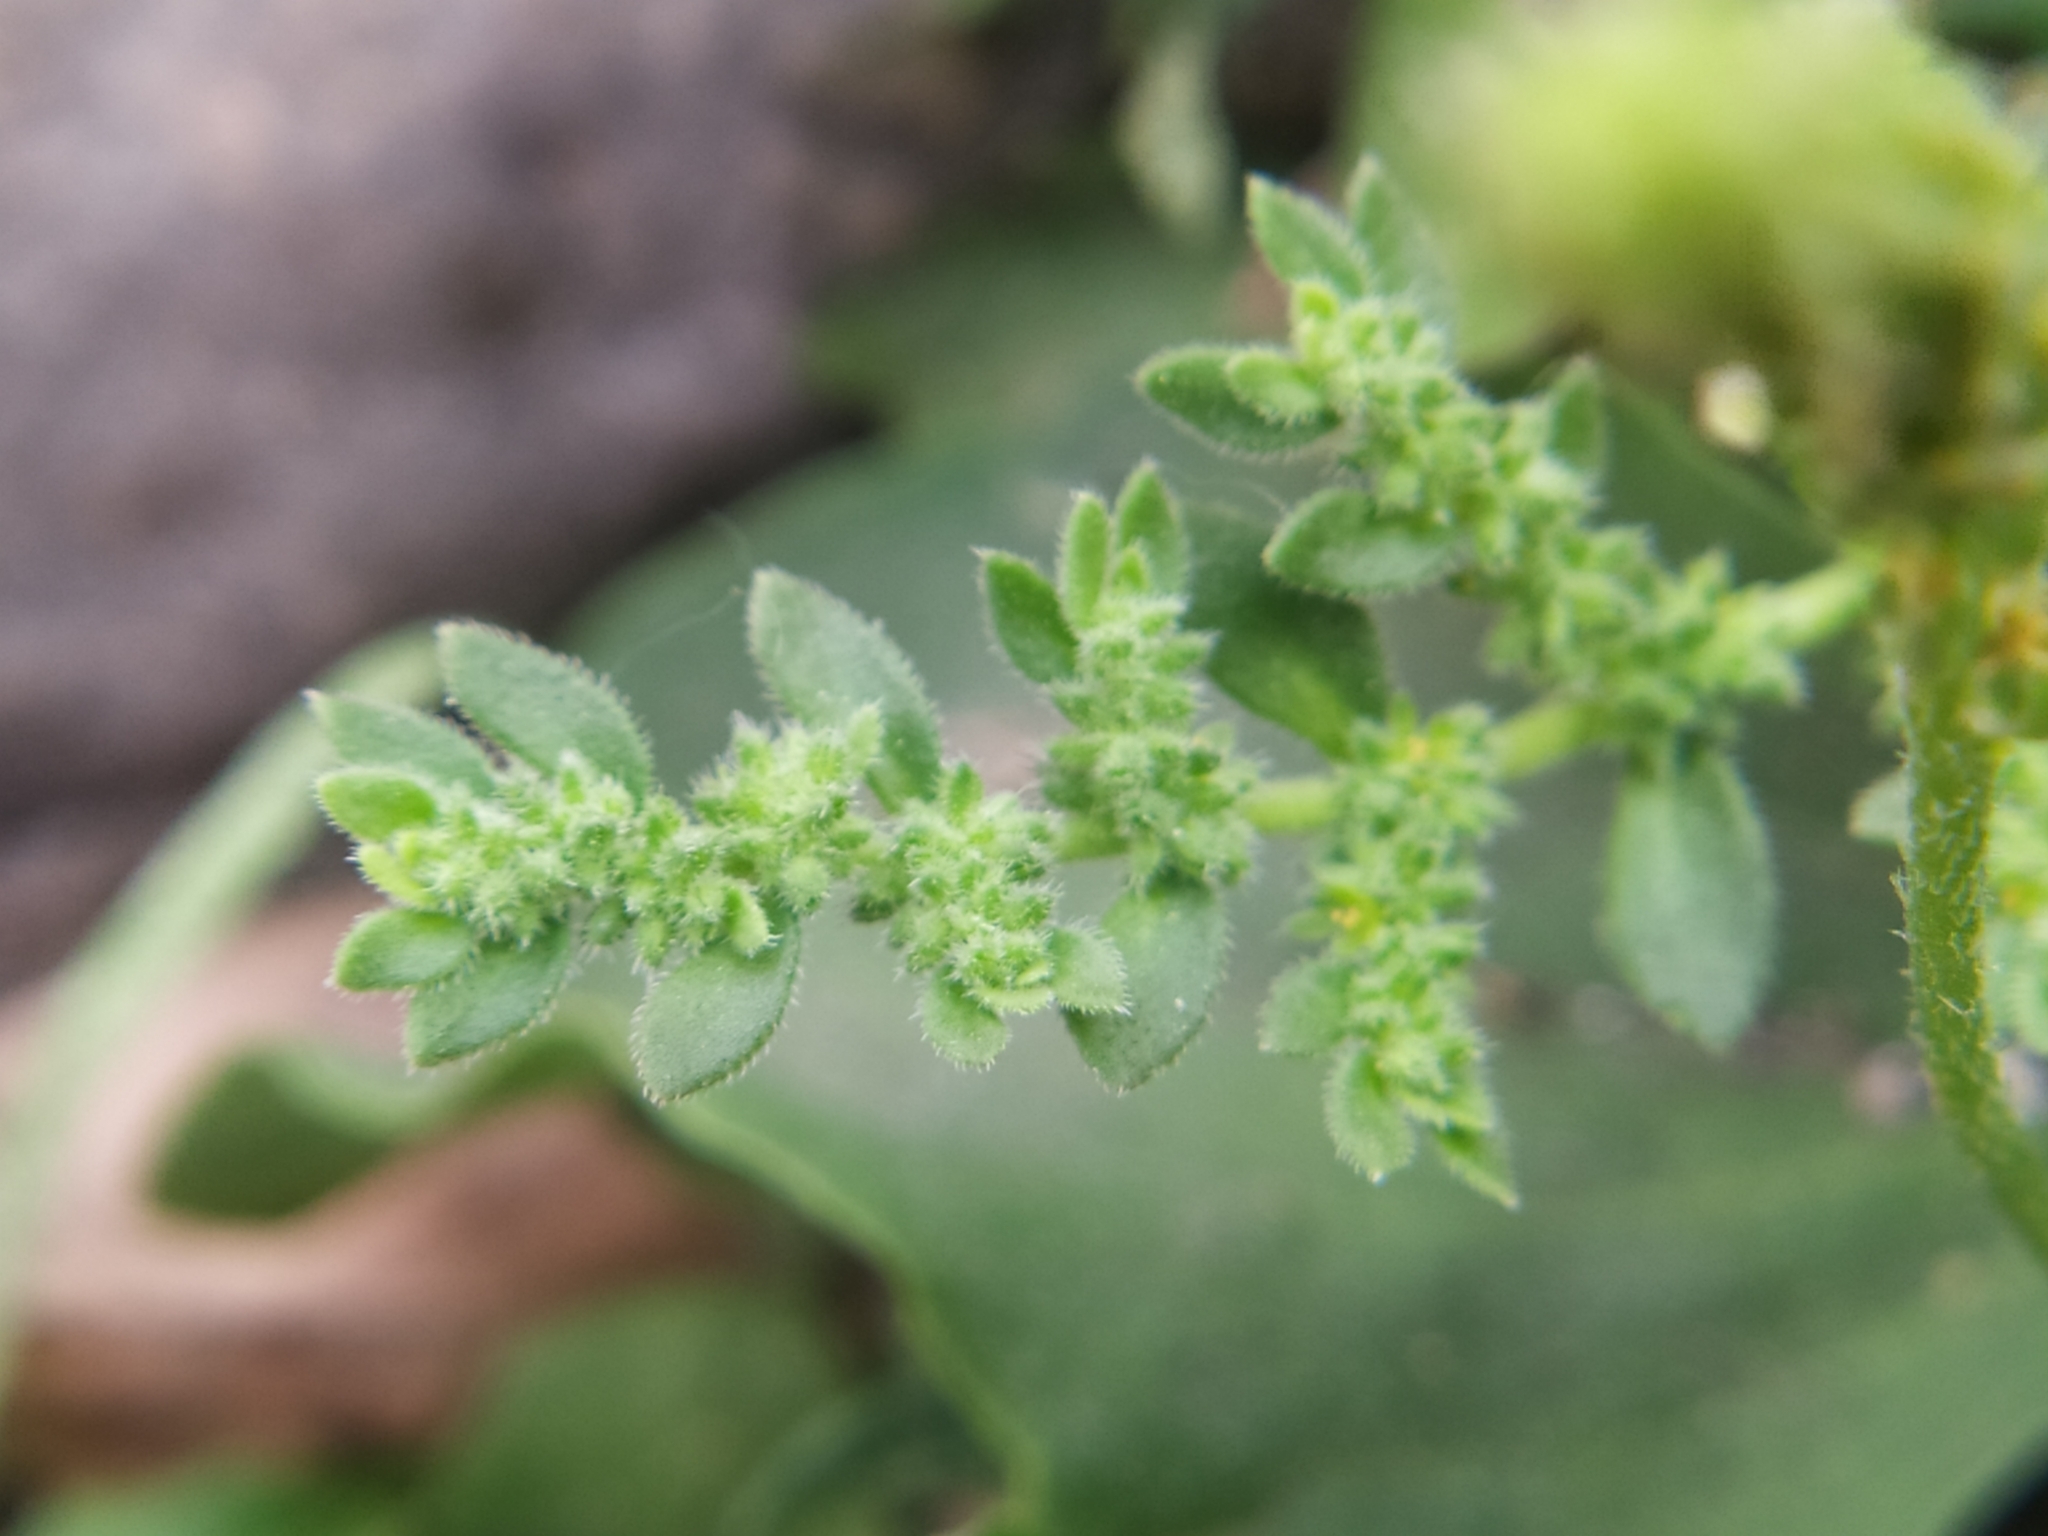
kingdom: Plantae
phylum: Tracheophyta
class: Magnoliopsida
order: Caryophyllales
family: Caryophyllaceae
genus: Herniaria
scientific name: Herniaria hirsuta
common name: Hairy rupturewort
